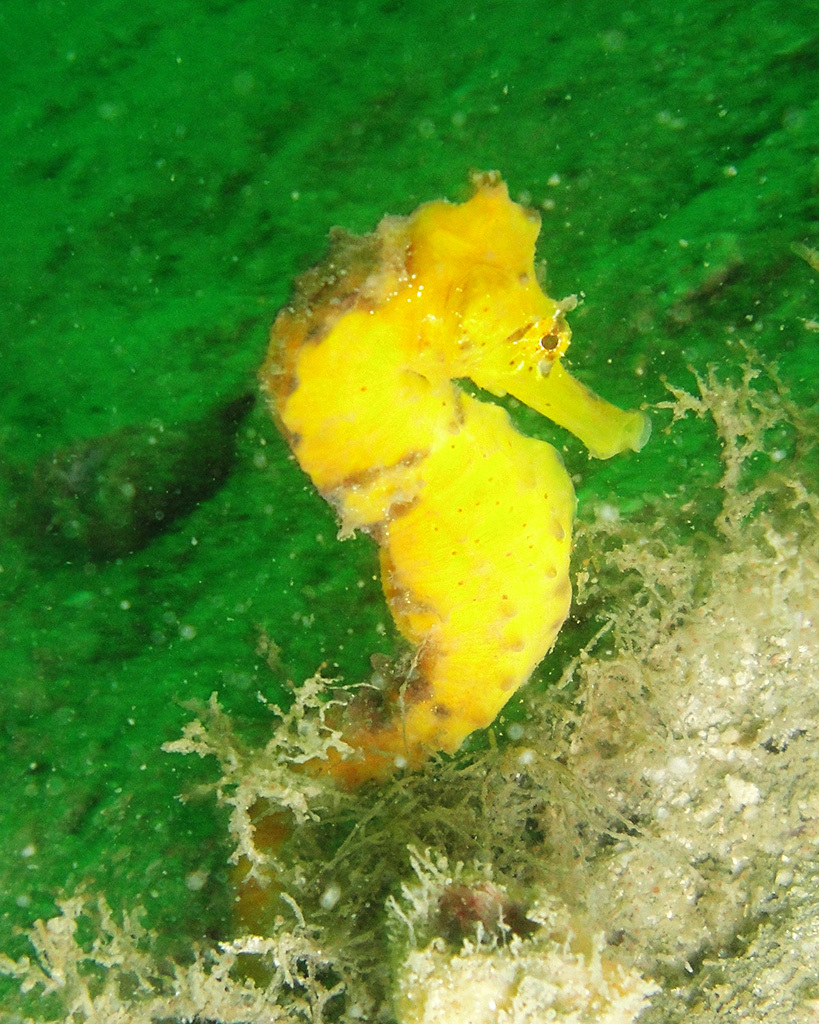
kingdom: Animalia
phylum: Chordata
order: Syngnathiformes
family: Syngnathidae
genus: Hippocampus
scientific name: Hippocampus kuda
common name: Spotted seahorse
